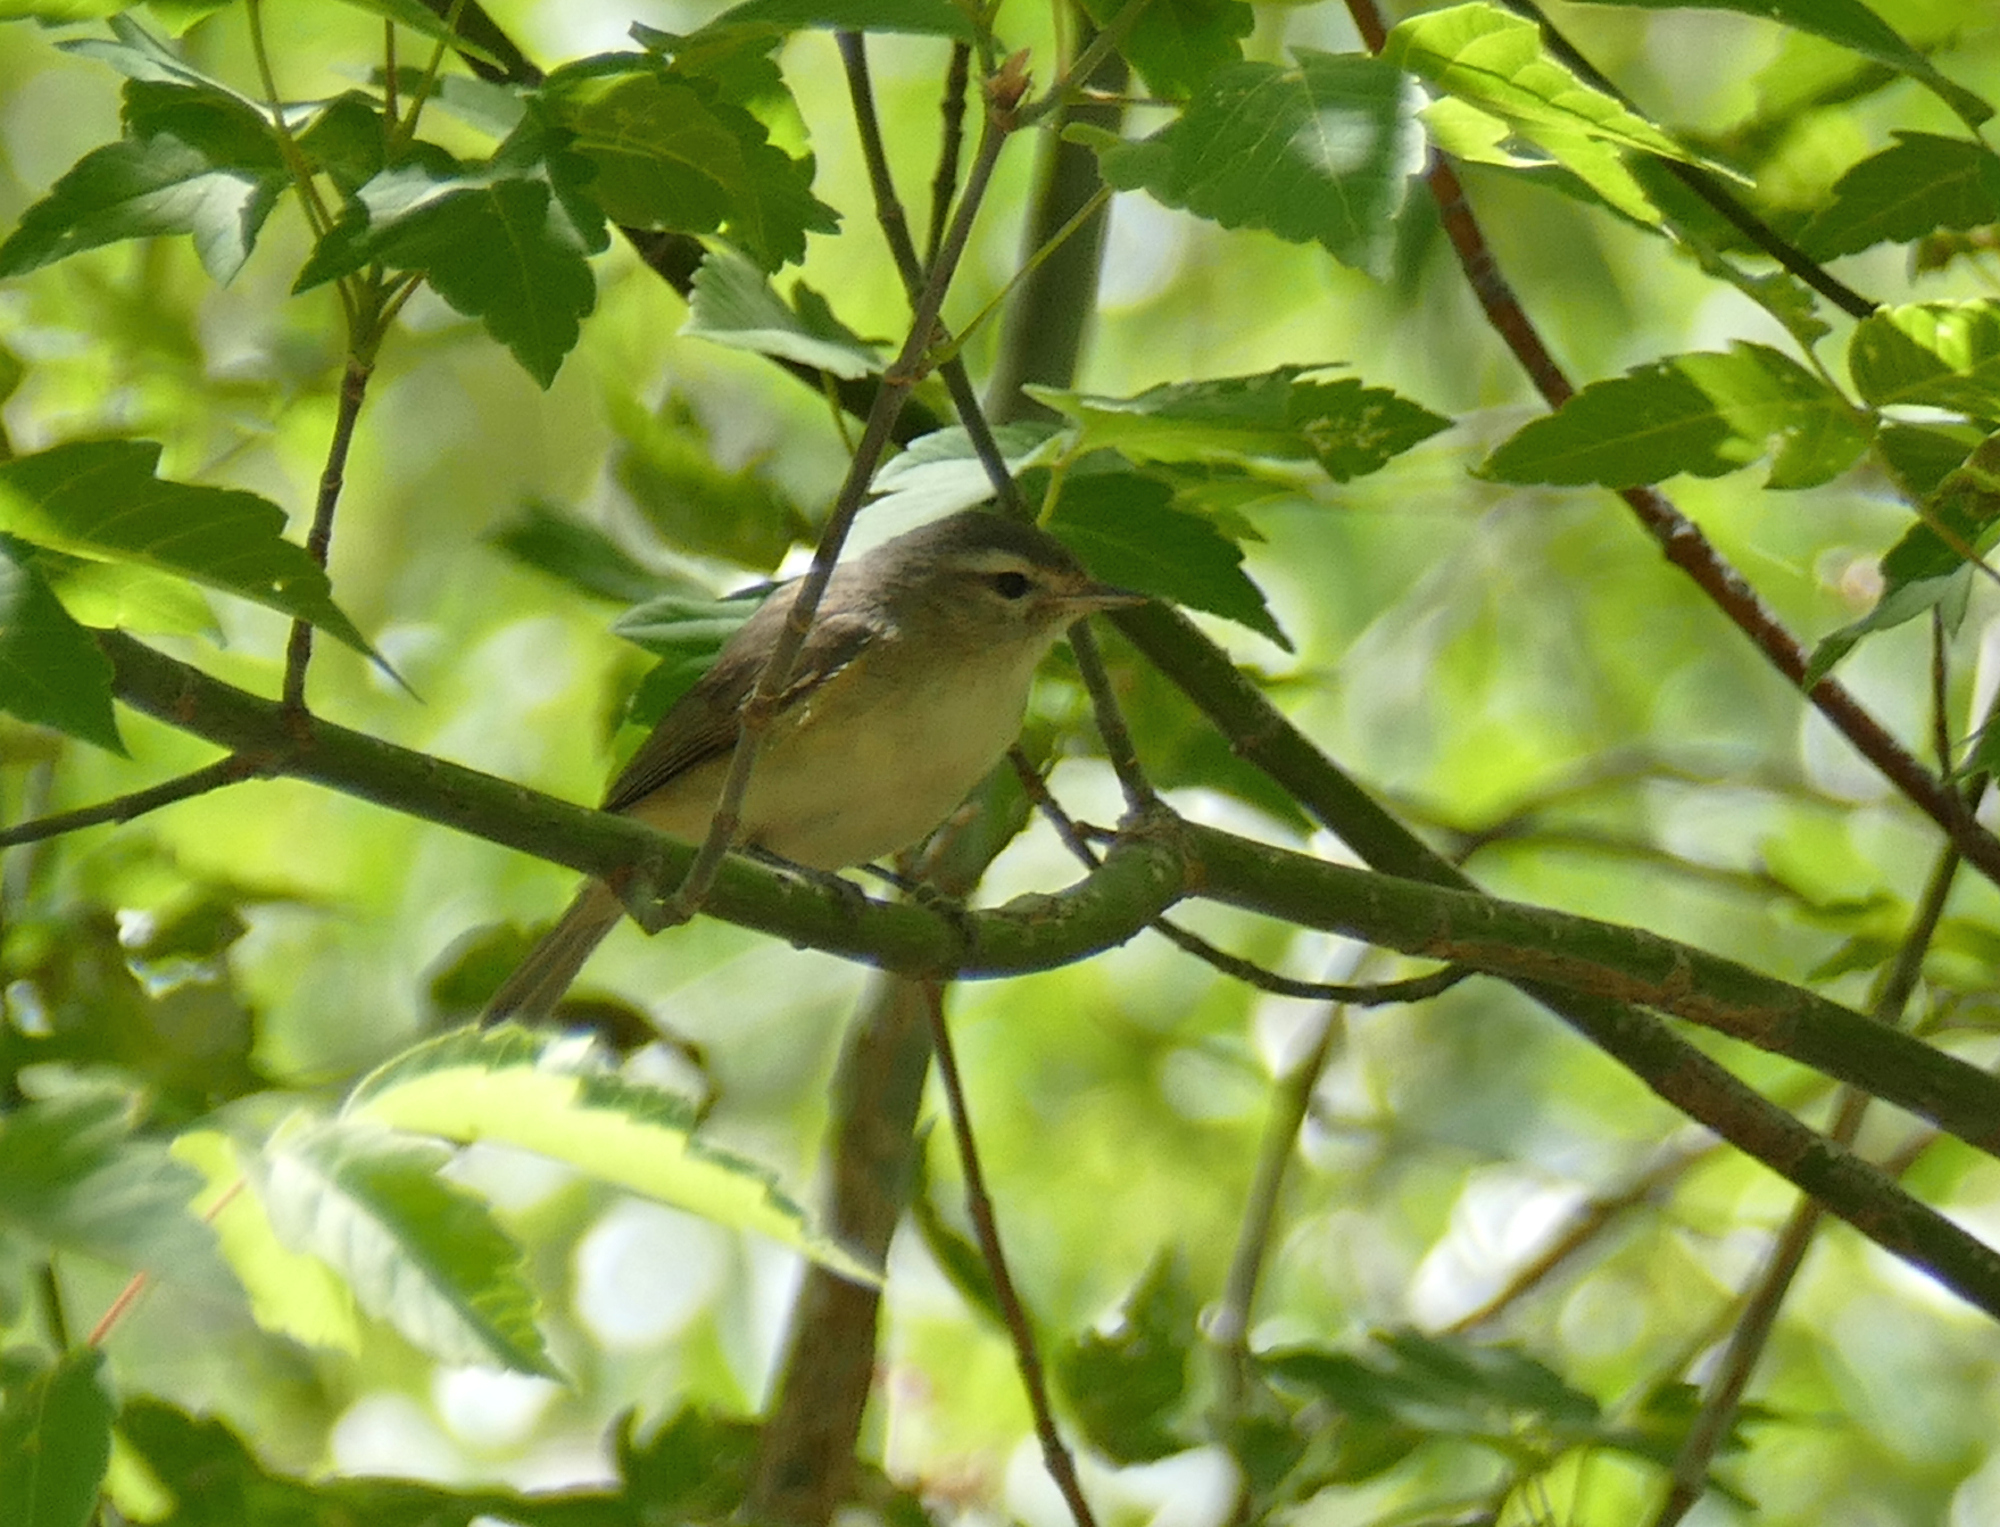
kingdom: Animalia
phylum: Chordata
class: Aves
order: Passeriformes
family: Vireonidae
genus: Vireo
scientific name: Vireo gilvus
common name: Warbling vireo
